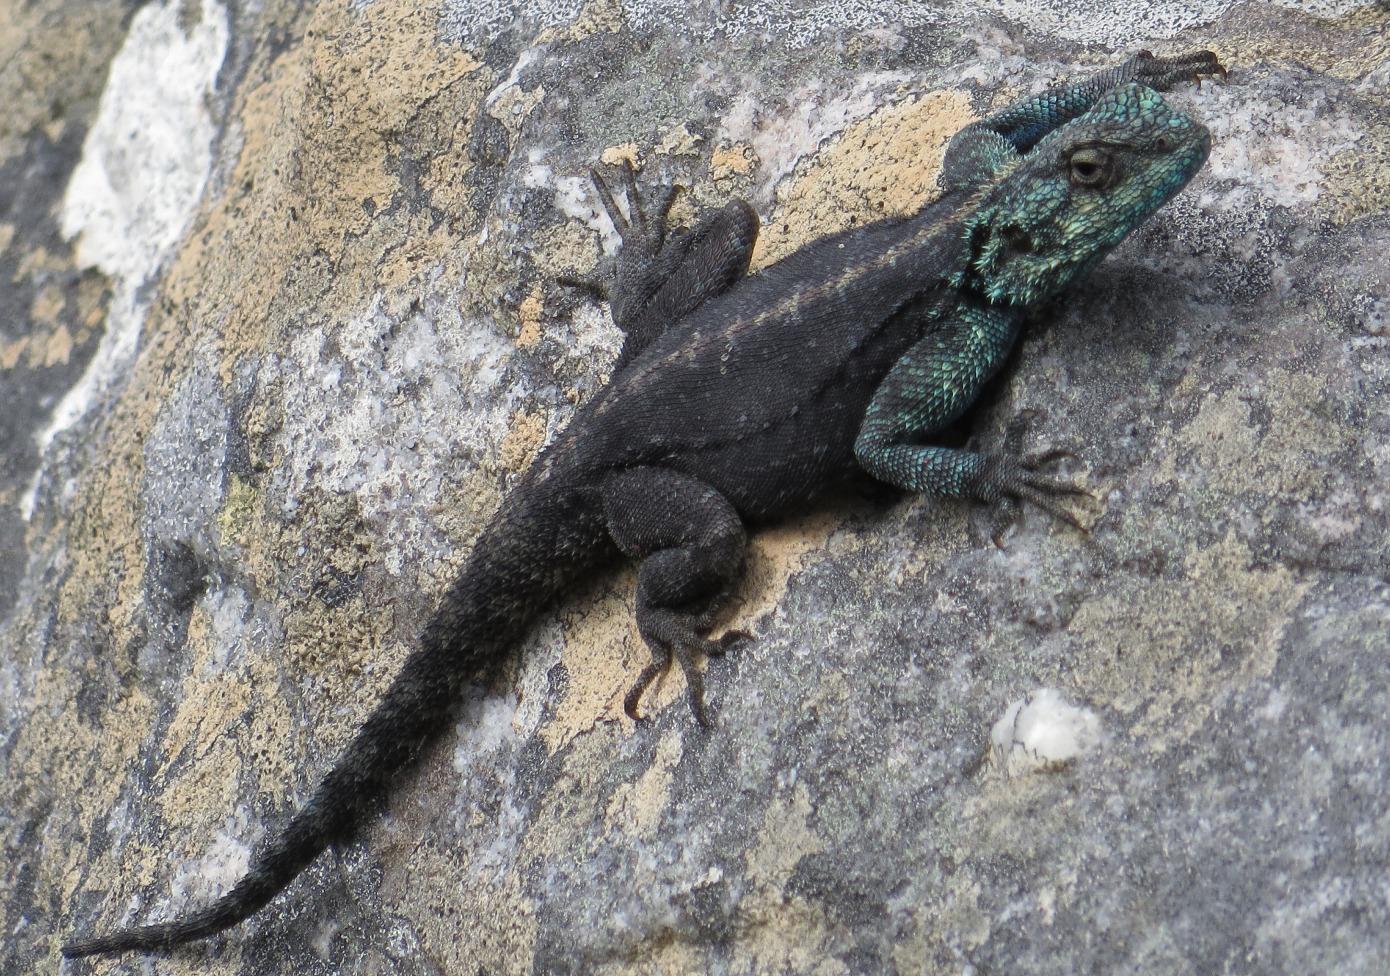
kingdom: Animalia
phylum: Chordata
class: Squamata
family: Agamidae
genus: Agama
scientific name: Agama atra
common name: Southern african rock agama
